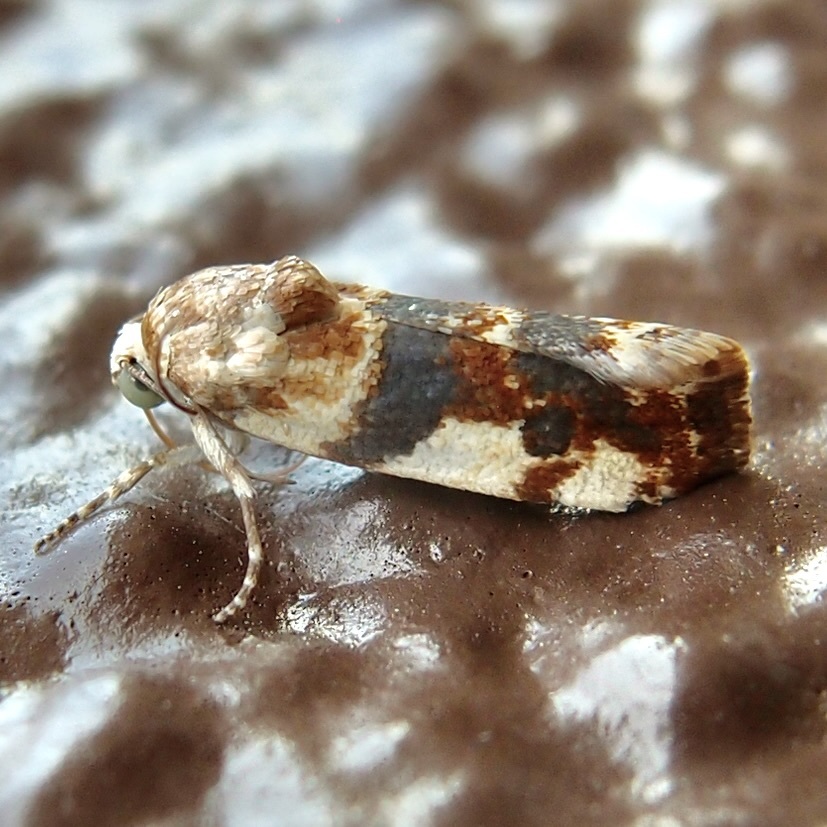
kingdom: Animalia
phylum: Arthropoda
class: Insecta
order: Lepidoptera
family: Noctuidae
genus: Acontia
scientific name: Acontia obatra
